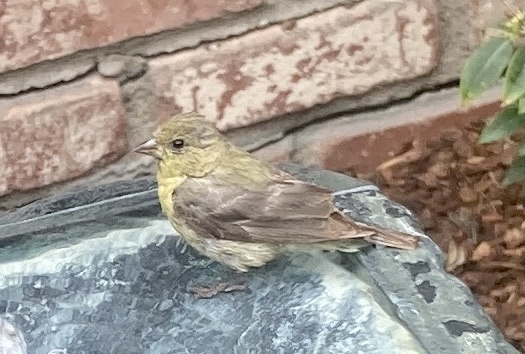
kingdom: Animalia
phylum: Chordata
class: Aves
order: Passeriformes
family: Fringillidae
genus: Spinus
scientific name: Spinus psaltria
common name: Lesser goldfinch
